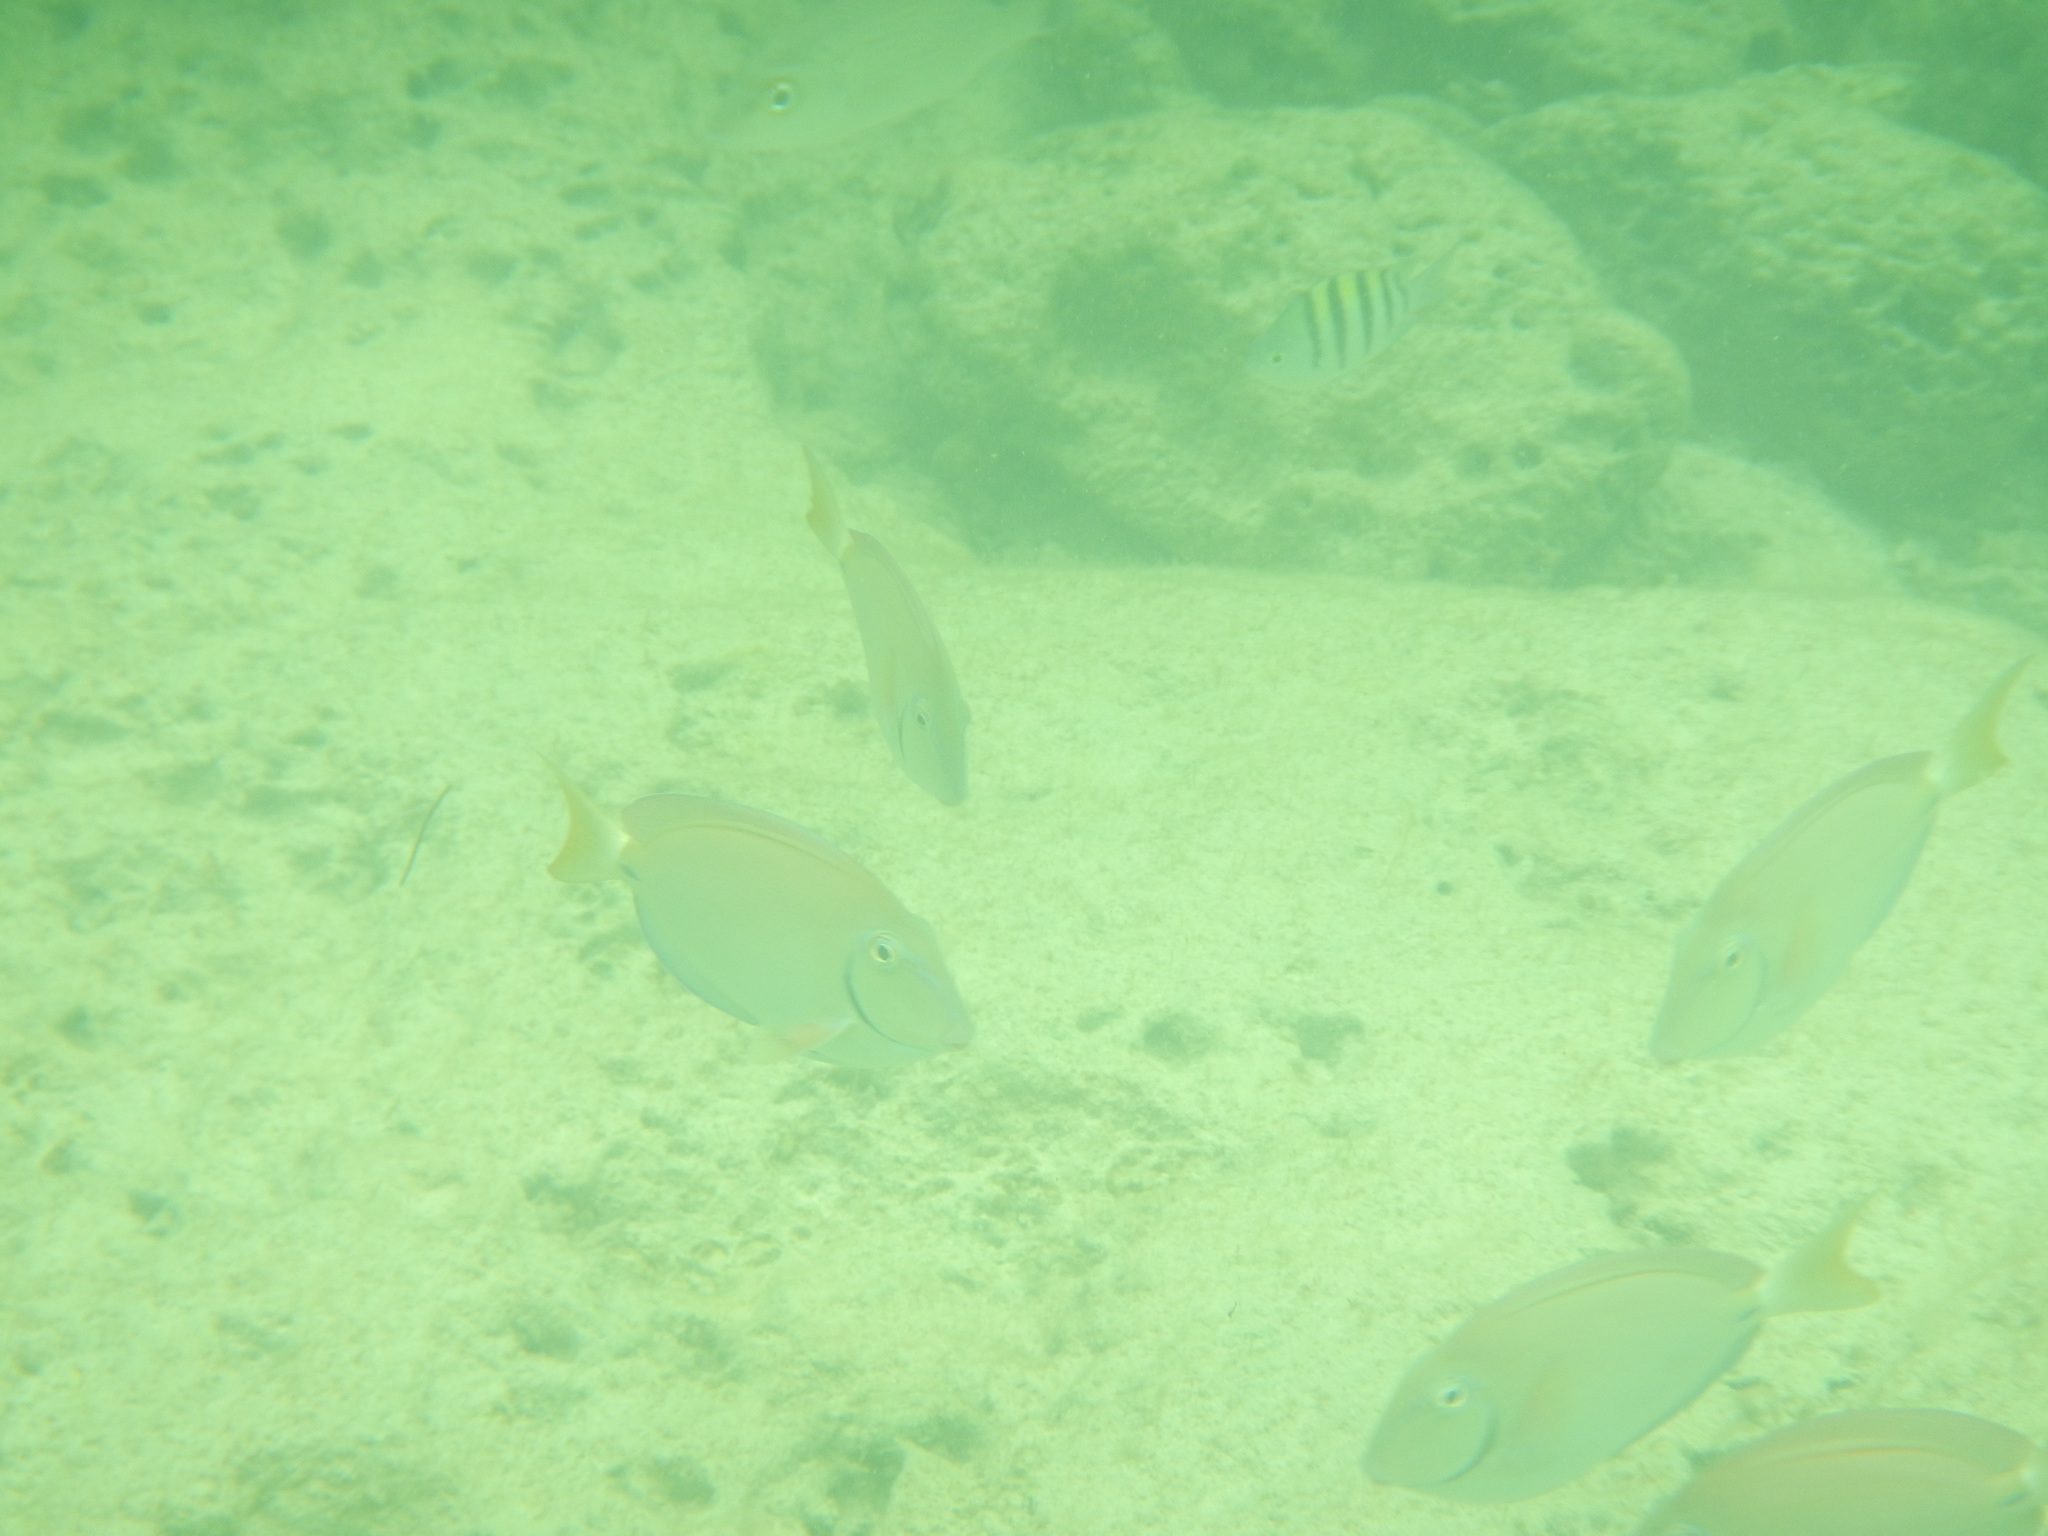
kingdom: Animalia
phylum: Chordata
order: Perciformes
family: Acanthuridae
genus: Acanthurus
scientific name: Acanthurus bahianus
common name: Ocean surgeon
